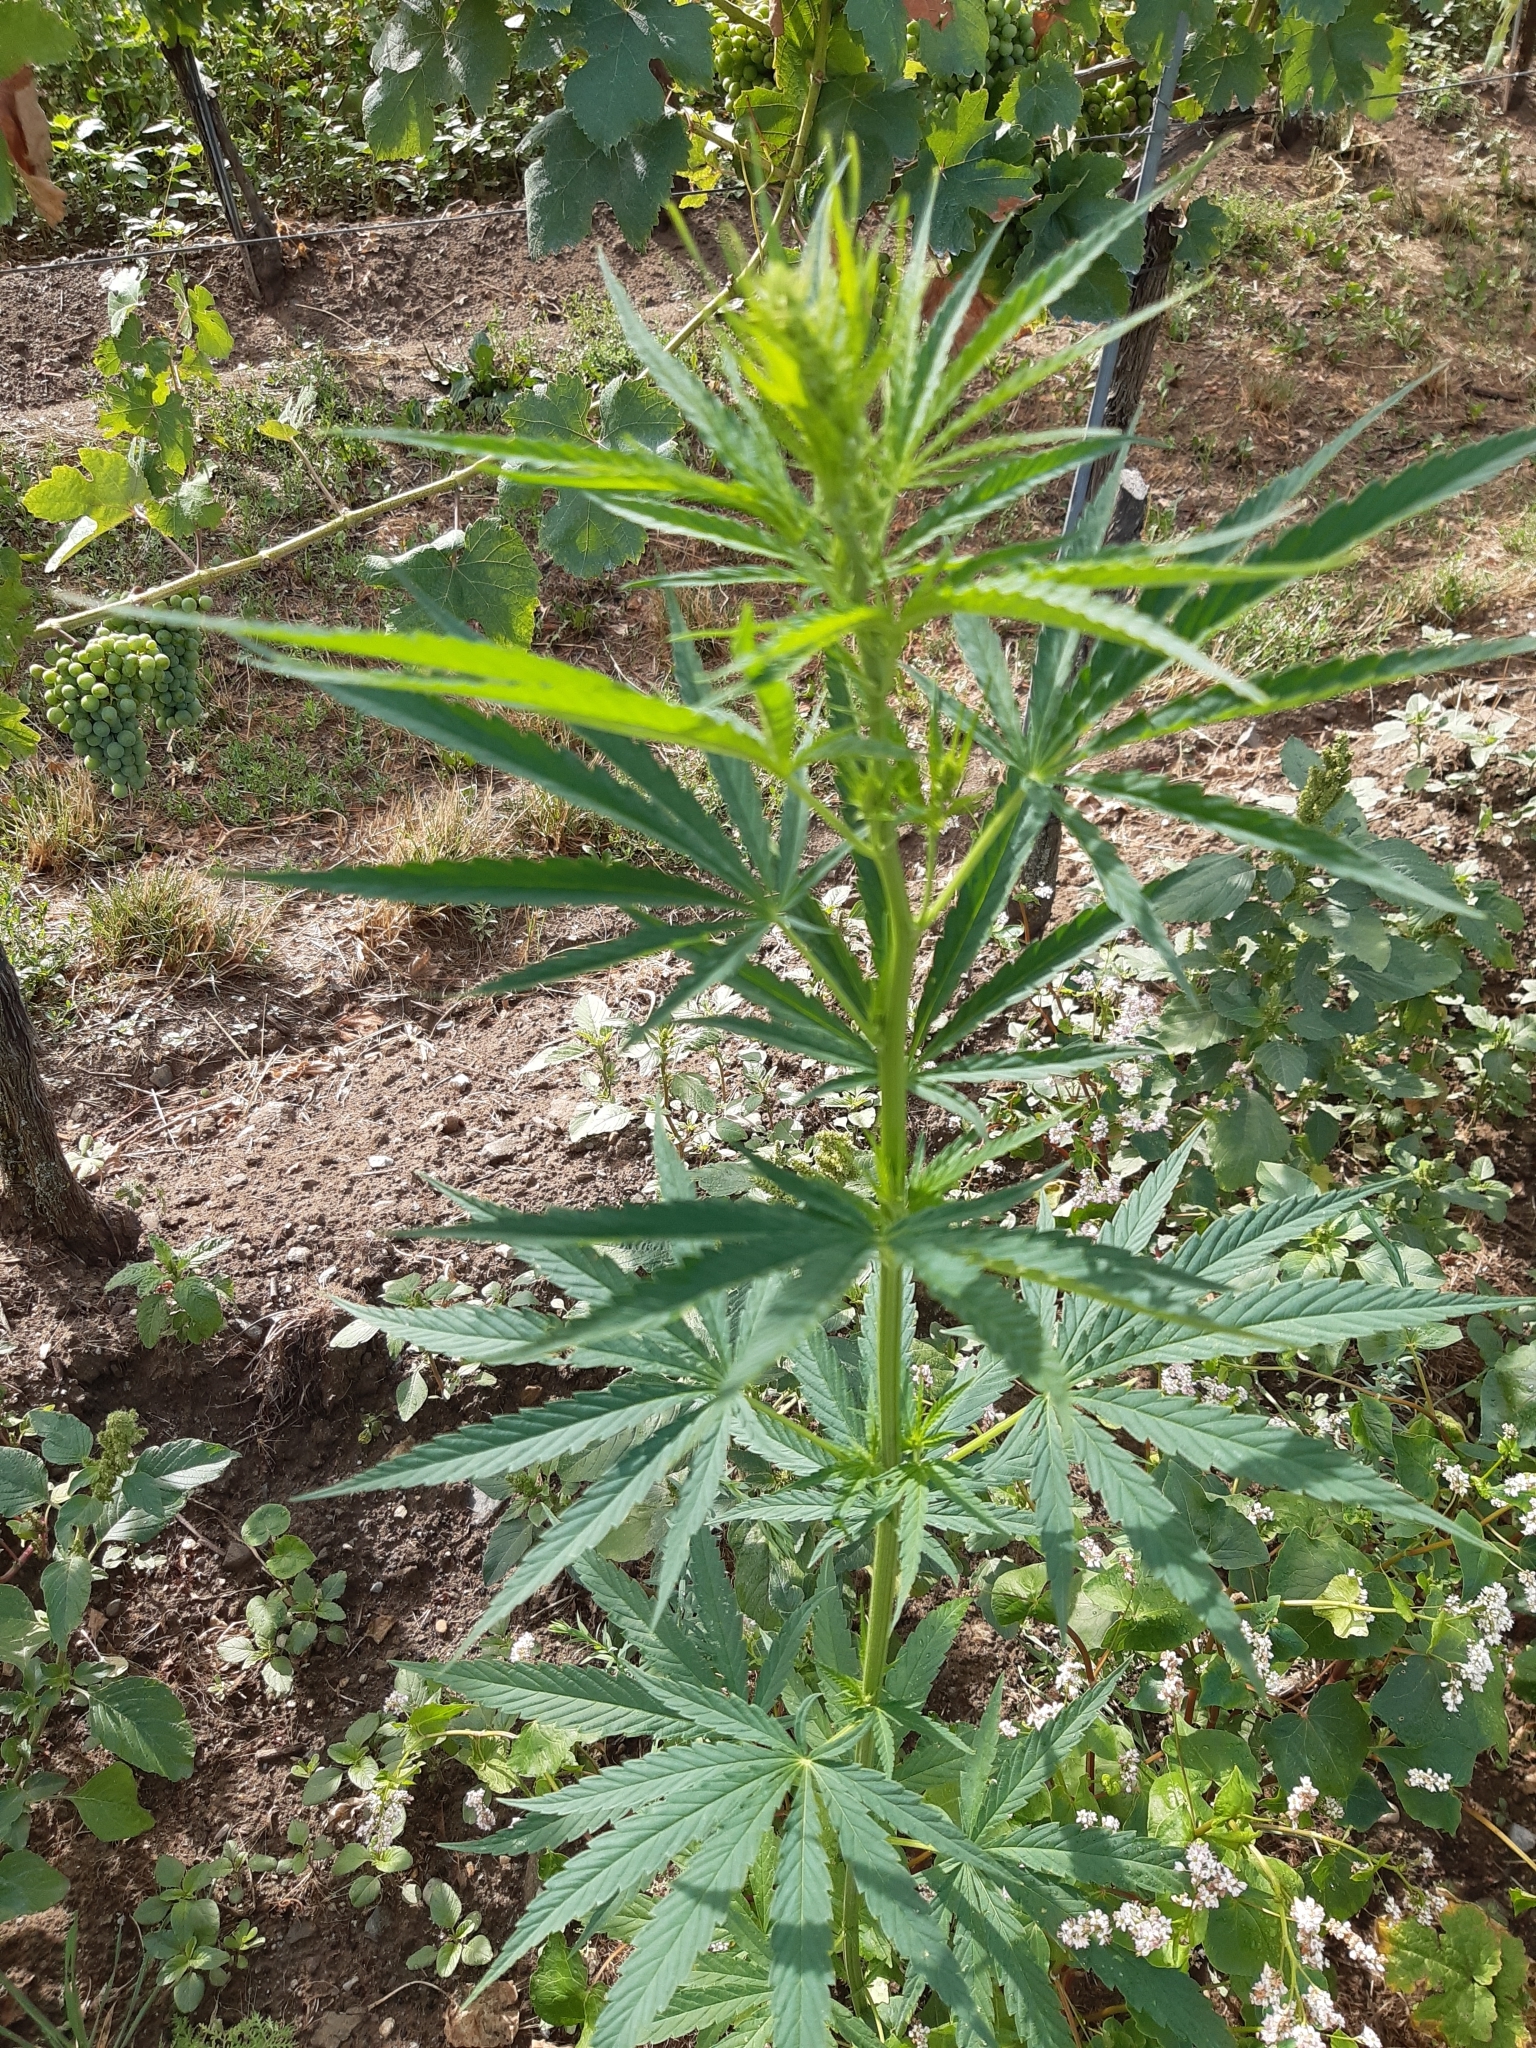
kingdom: Plantae
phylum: Tracheophyta
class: Magnoliopsida
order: Rosales
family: Cannabaceae
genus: Cannabis
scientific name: Cannabis sativa
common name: Hemp
